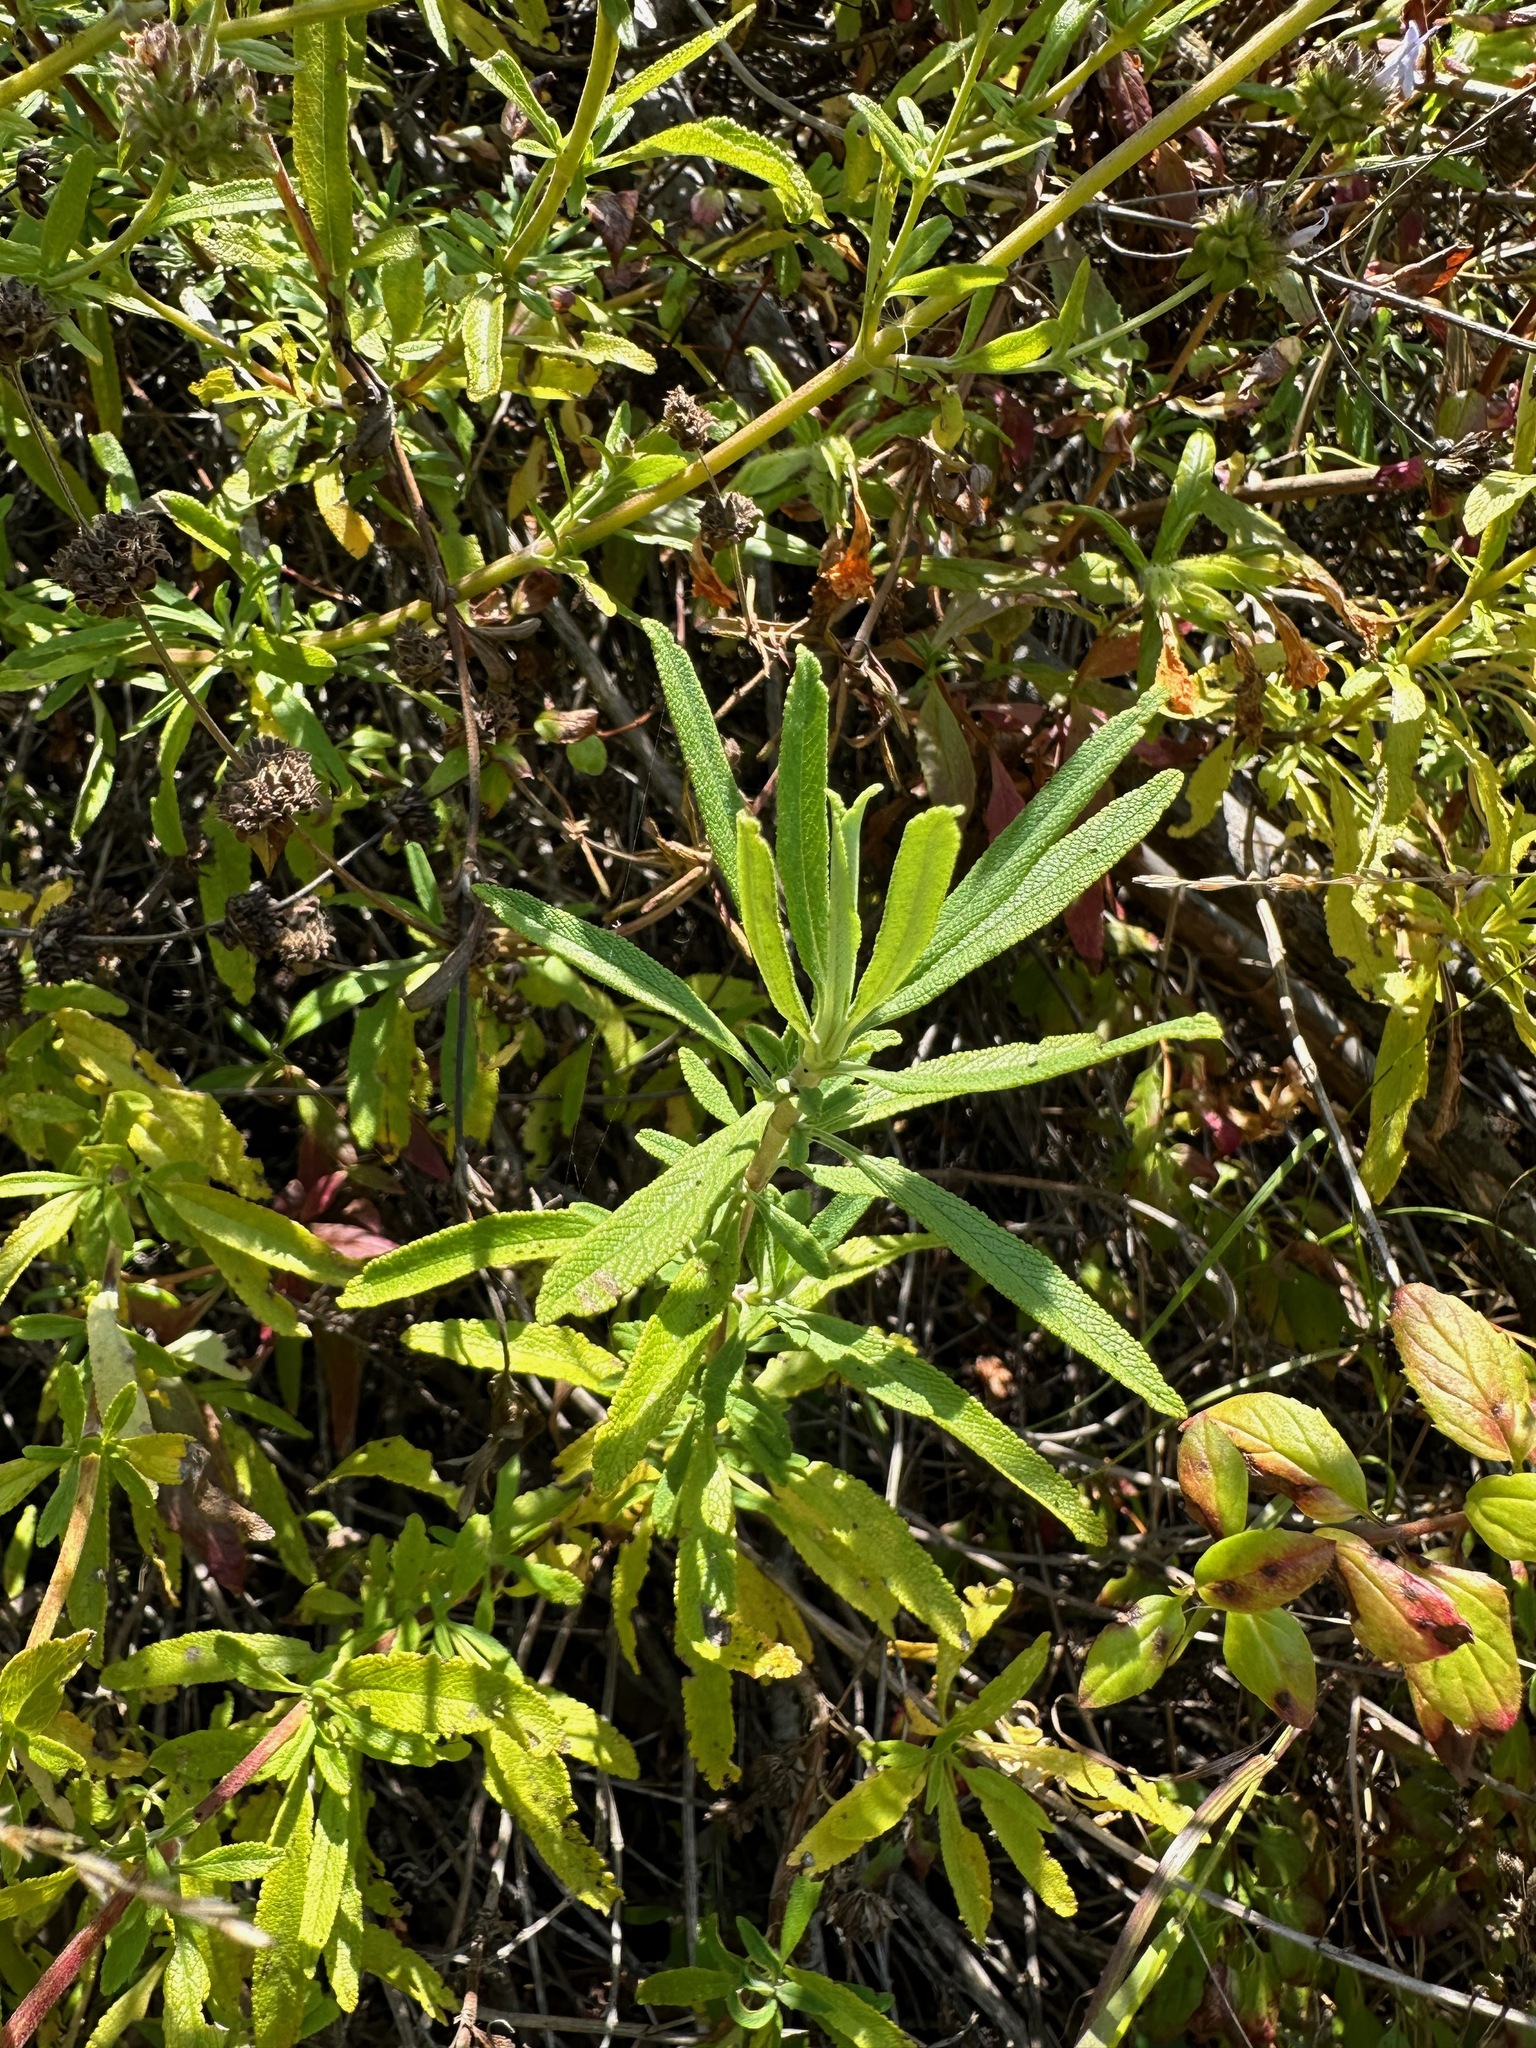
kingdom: Plantae
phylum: Tracheophyta
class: Magnoliopsida
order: Lamiales
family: Lamiaceae
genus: Salvia
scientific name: Salvia mellifera
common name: Black sage
